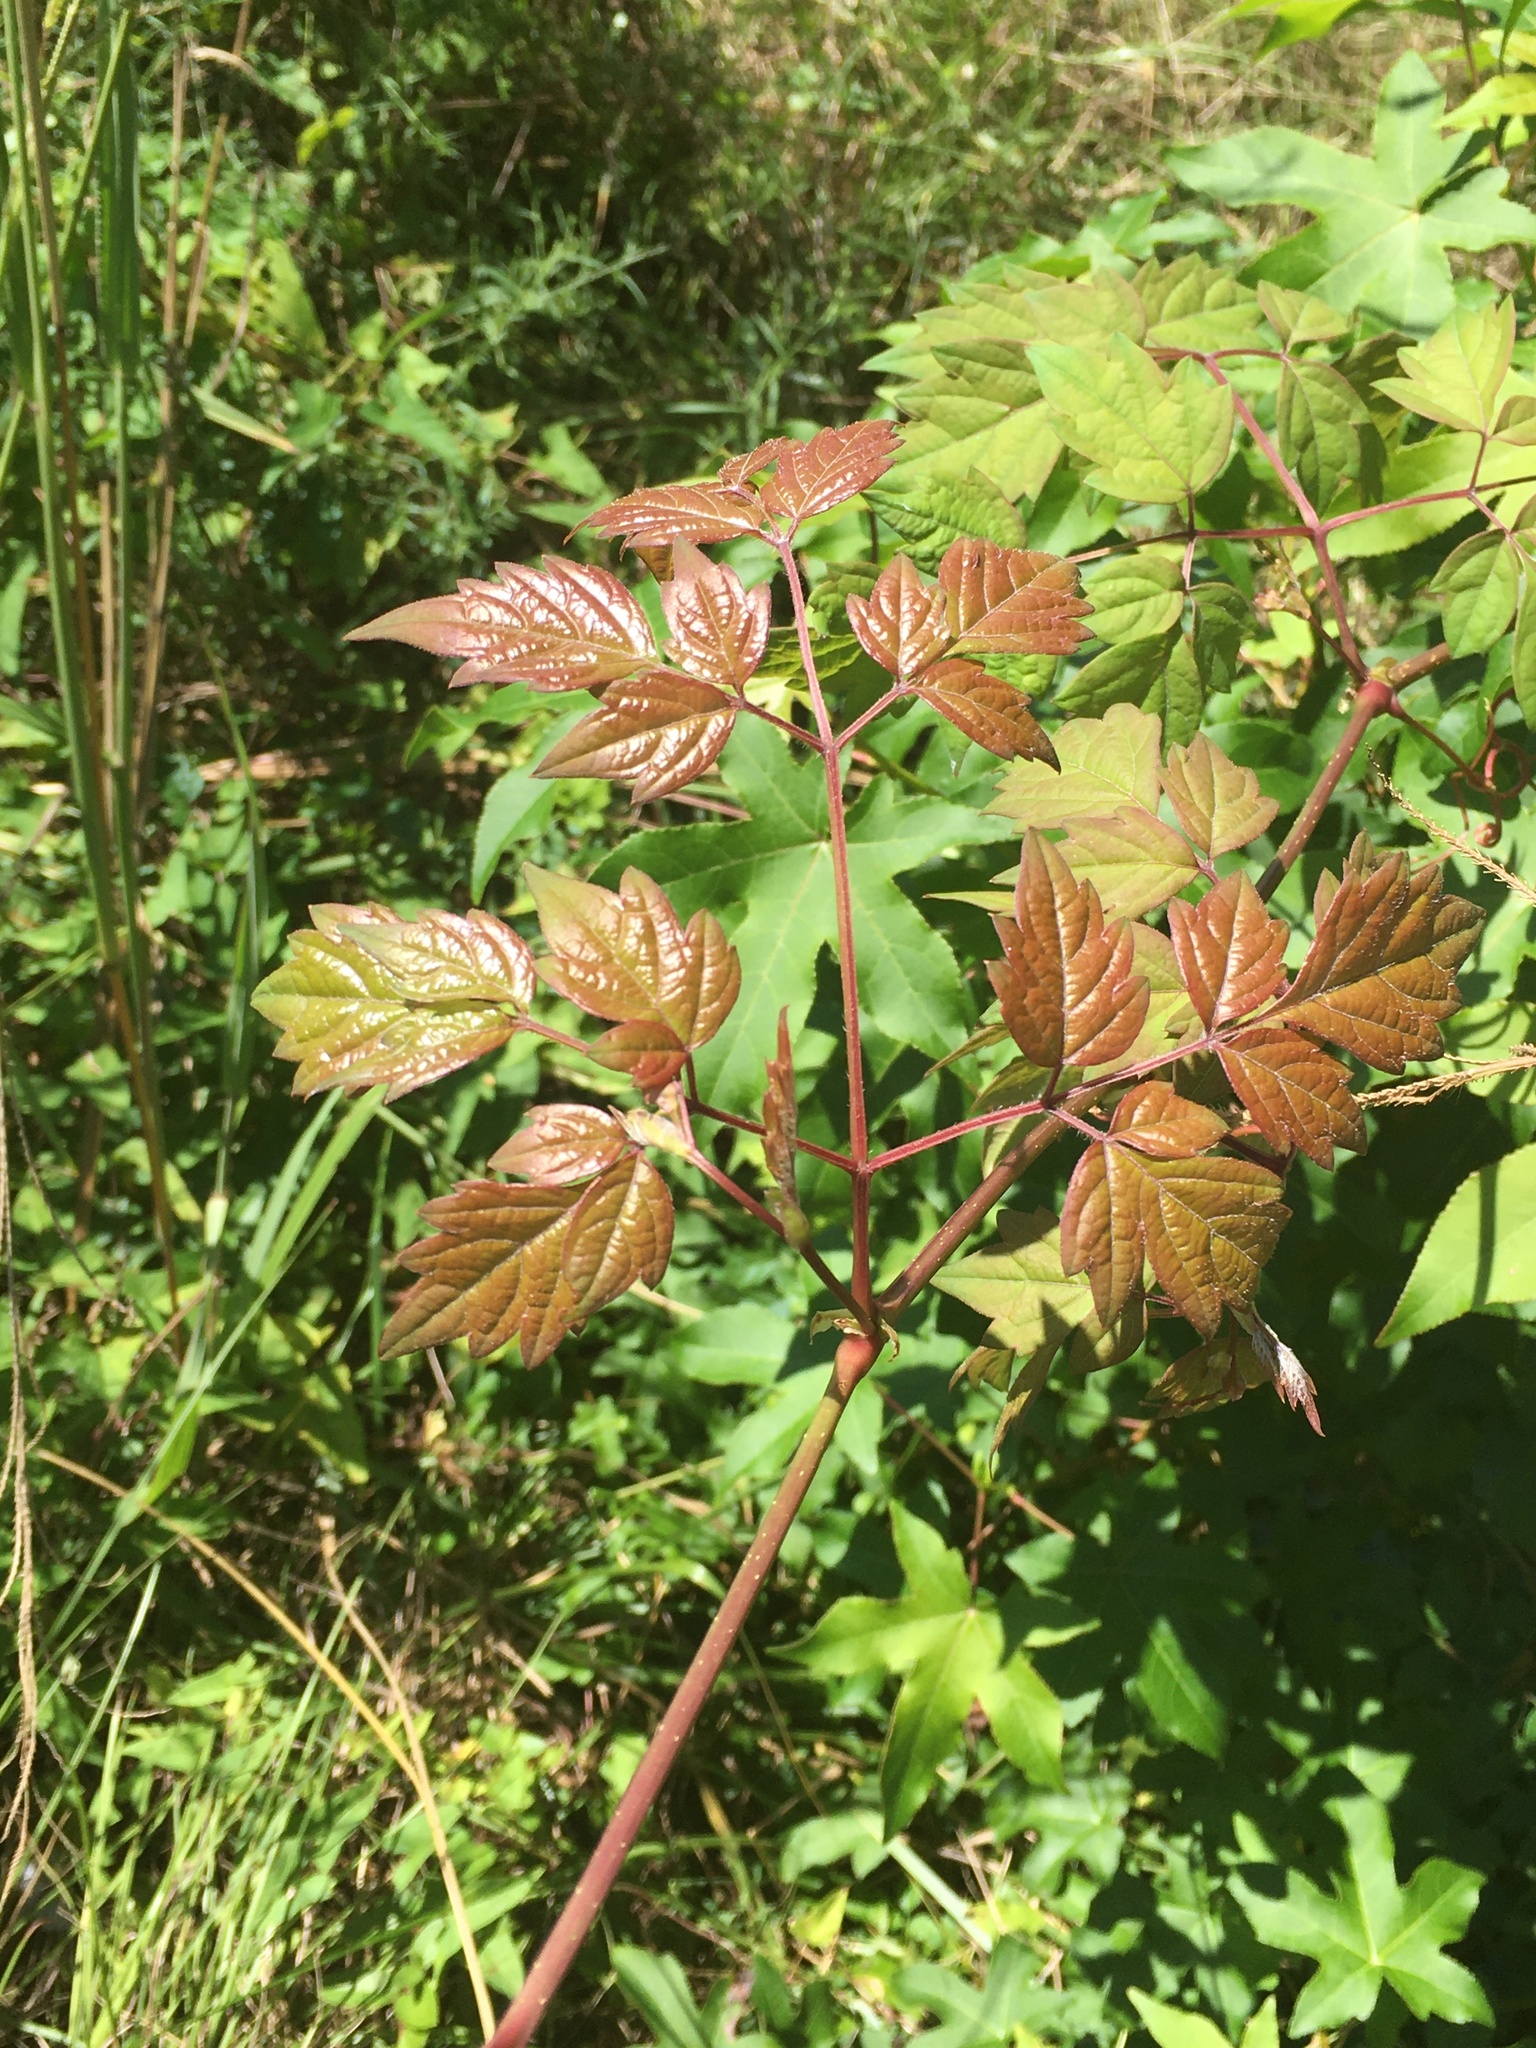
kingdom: Plantae
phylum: Tracheophyta
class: Magnoliopsida
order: Vitales
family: Vitaceae
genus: Nekemias
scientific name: Nekemias arborea
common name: Peppervine
